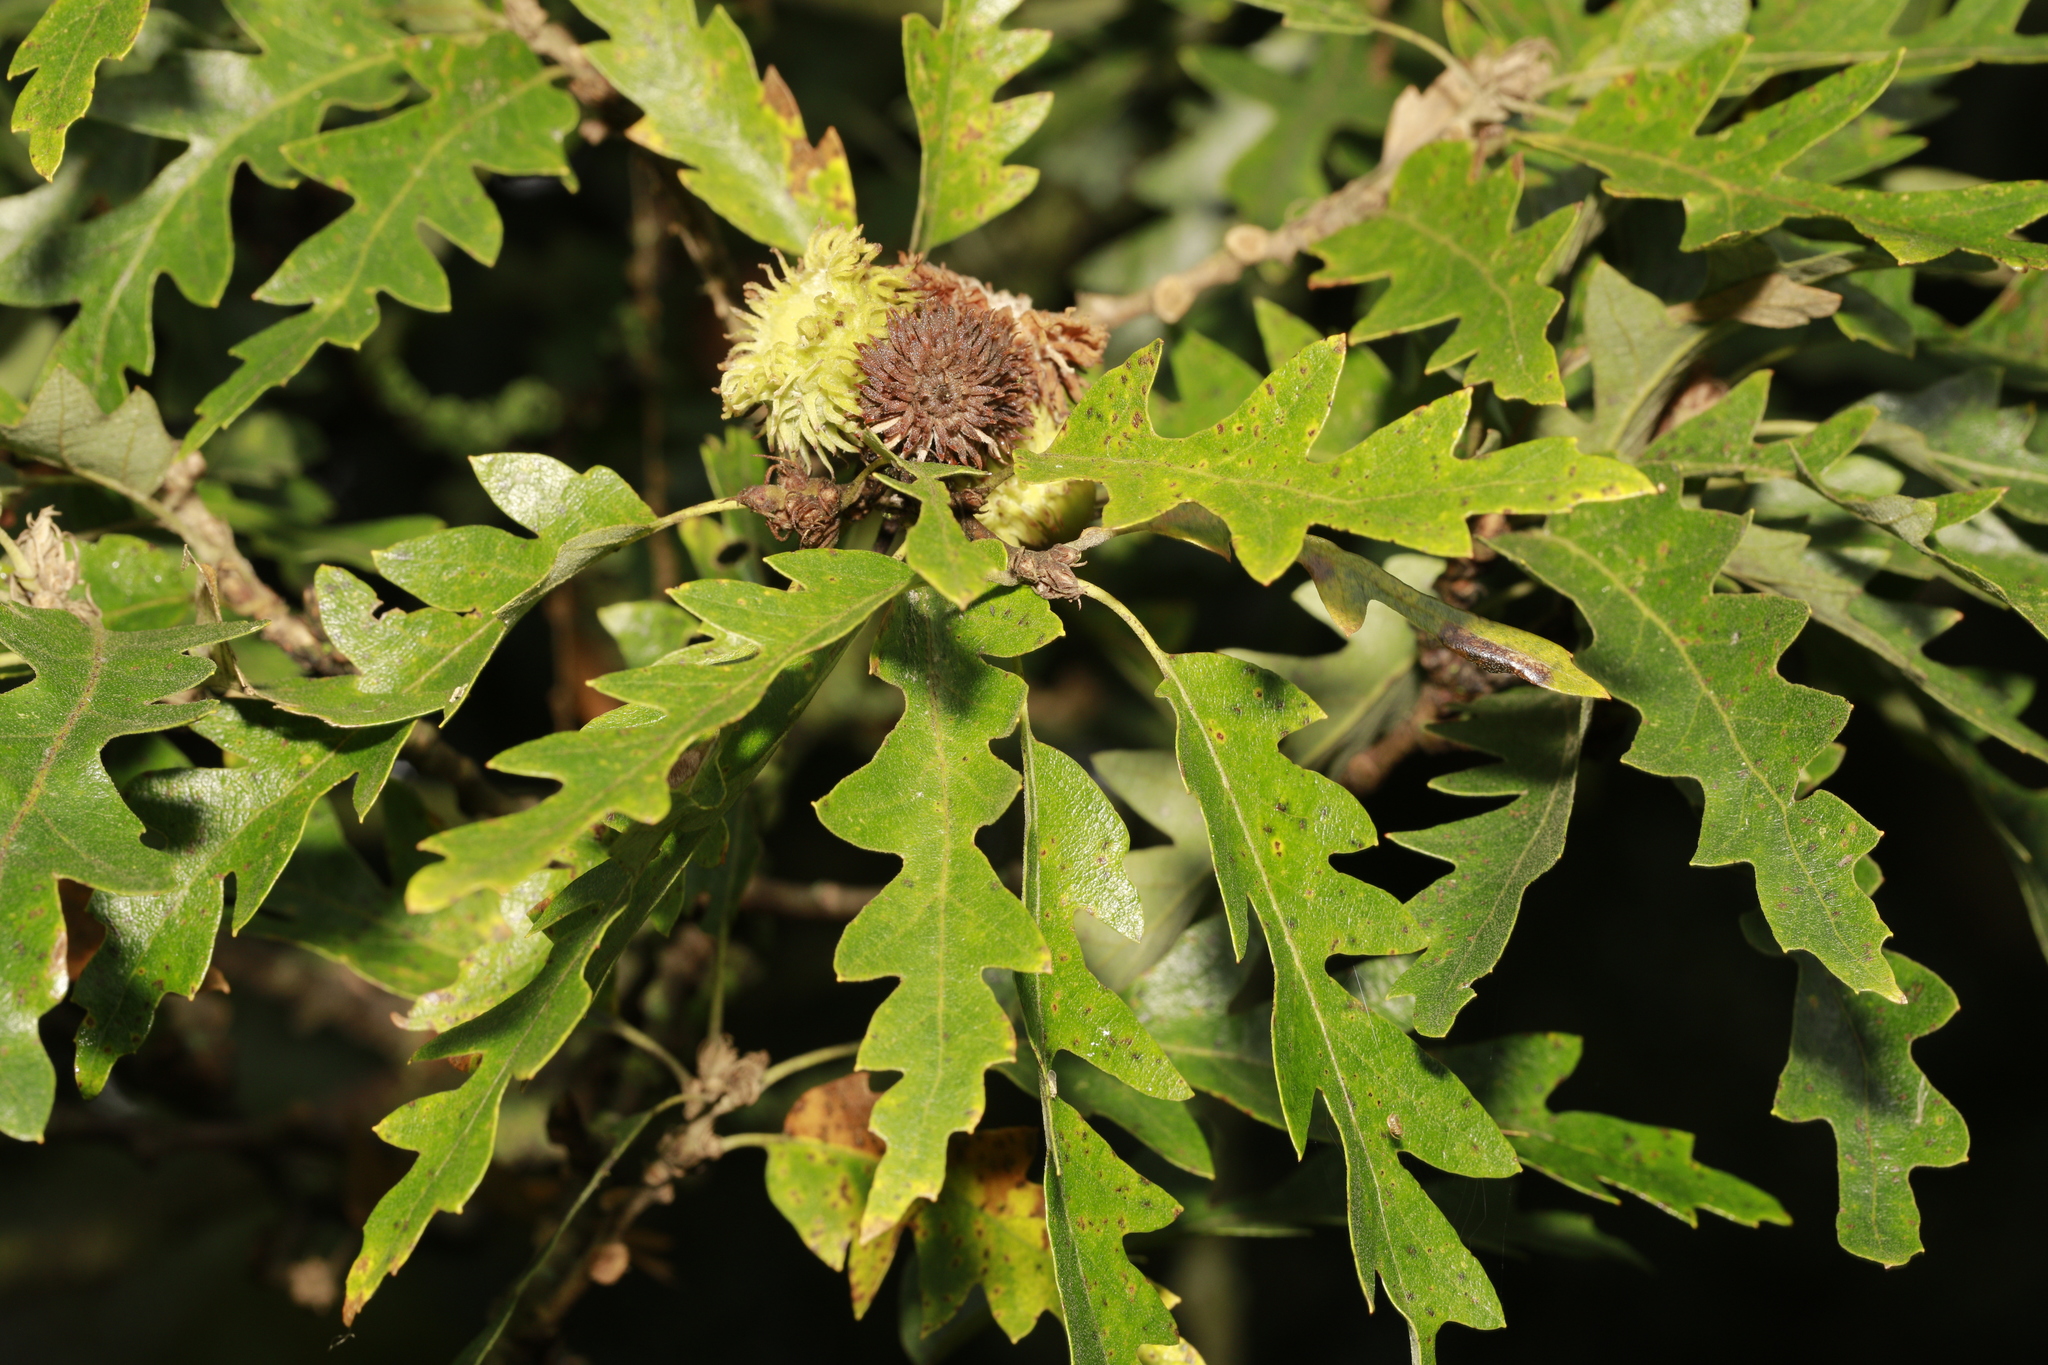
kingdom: Plantae
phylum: Tracheophyta
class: Magnoliopsida
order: Fagales
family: Fagaceae
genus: Quercus
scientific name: Quercus cerris
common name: Turkey oak
